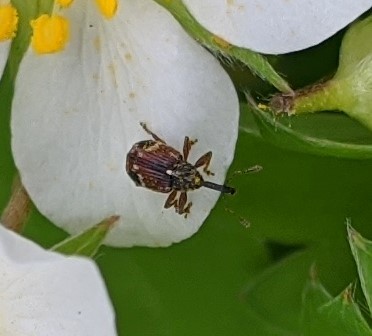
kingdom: Animalia
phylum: Arthropoda
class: Insecta
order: Coleoptera
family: Curculionidae
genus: Anthonomus
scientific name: Anthonomus signatus
